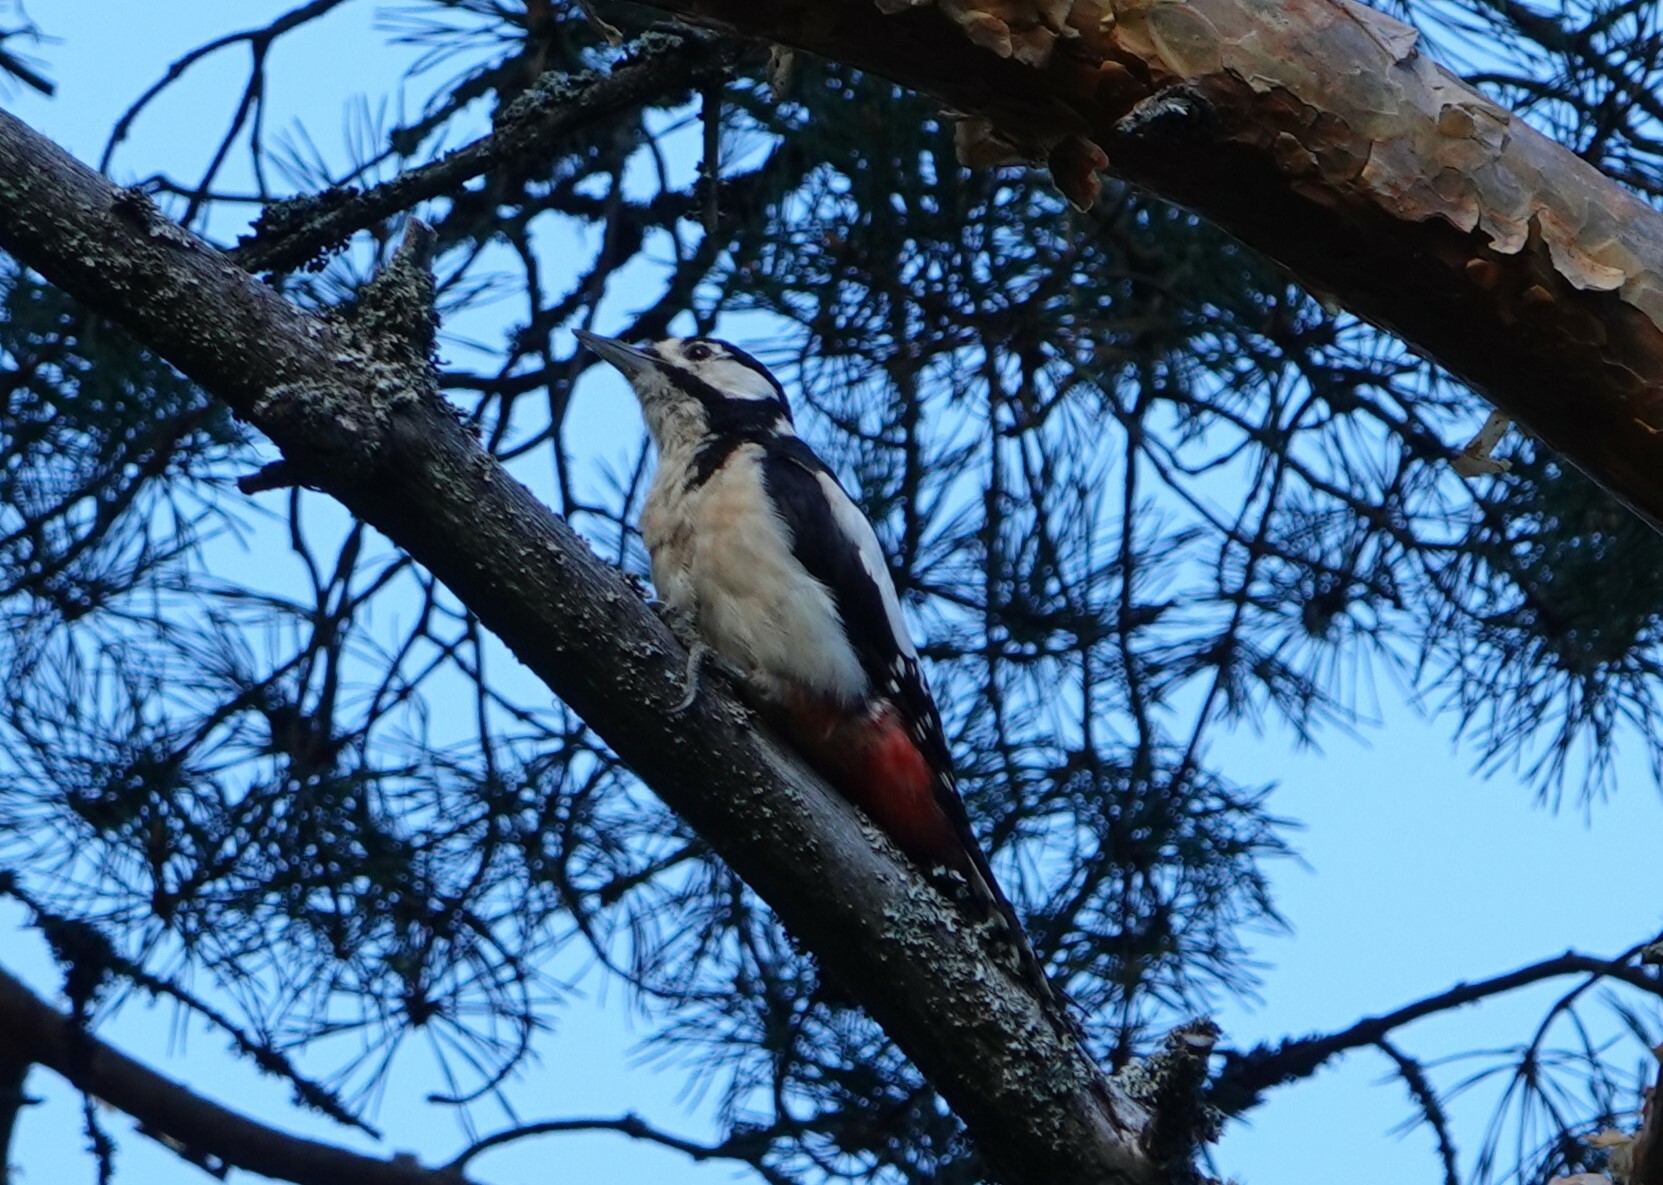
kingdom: Animalia
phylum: Chordata
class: Aves
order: Piciformes
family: Picidae
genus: Dendrocopos
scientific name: Dendrocopos major
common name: Great spotted woodpecker
